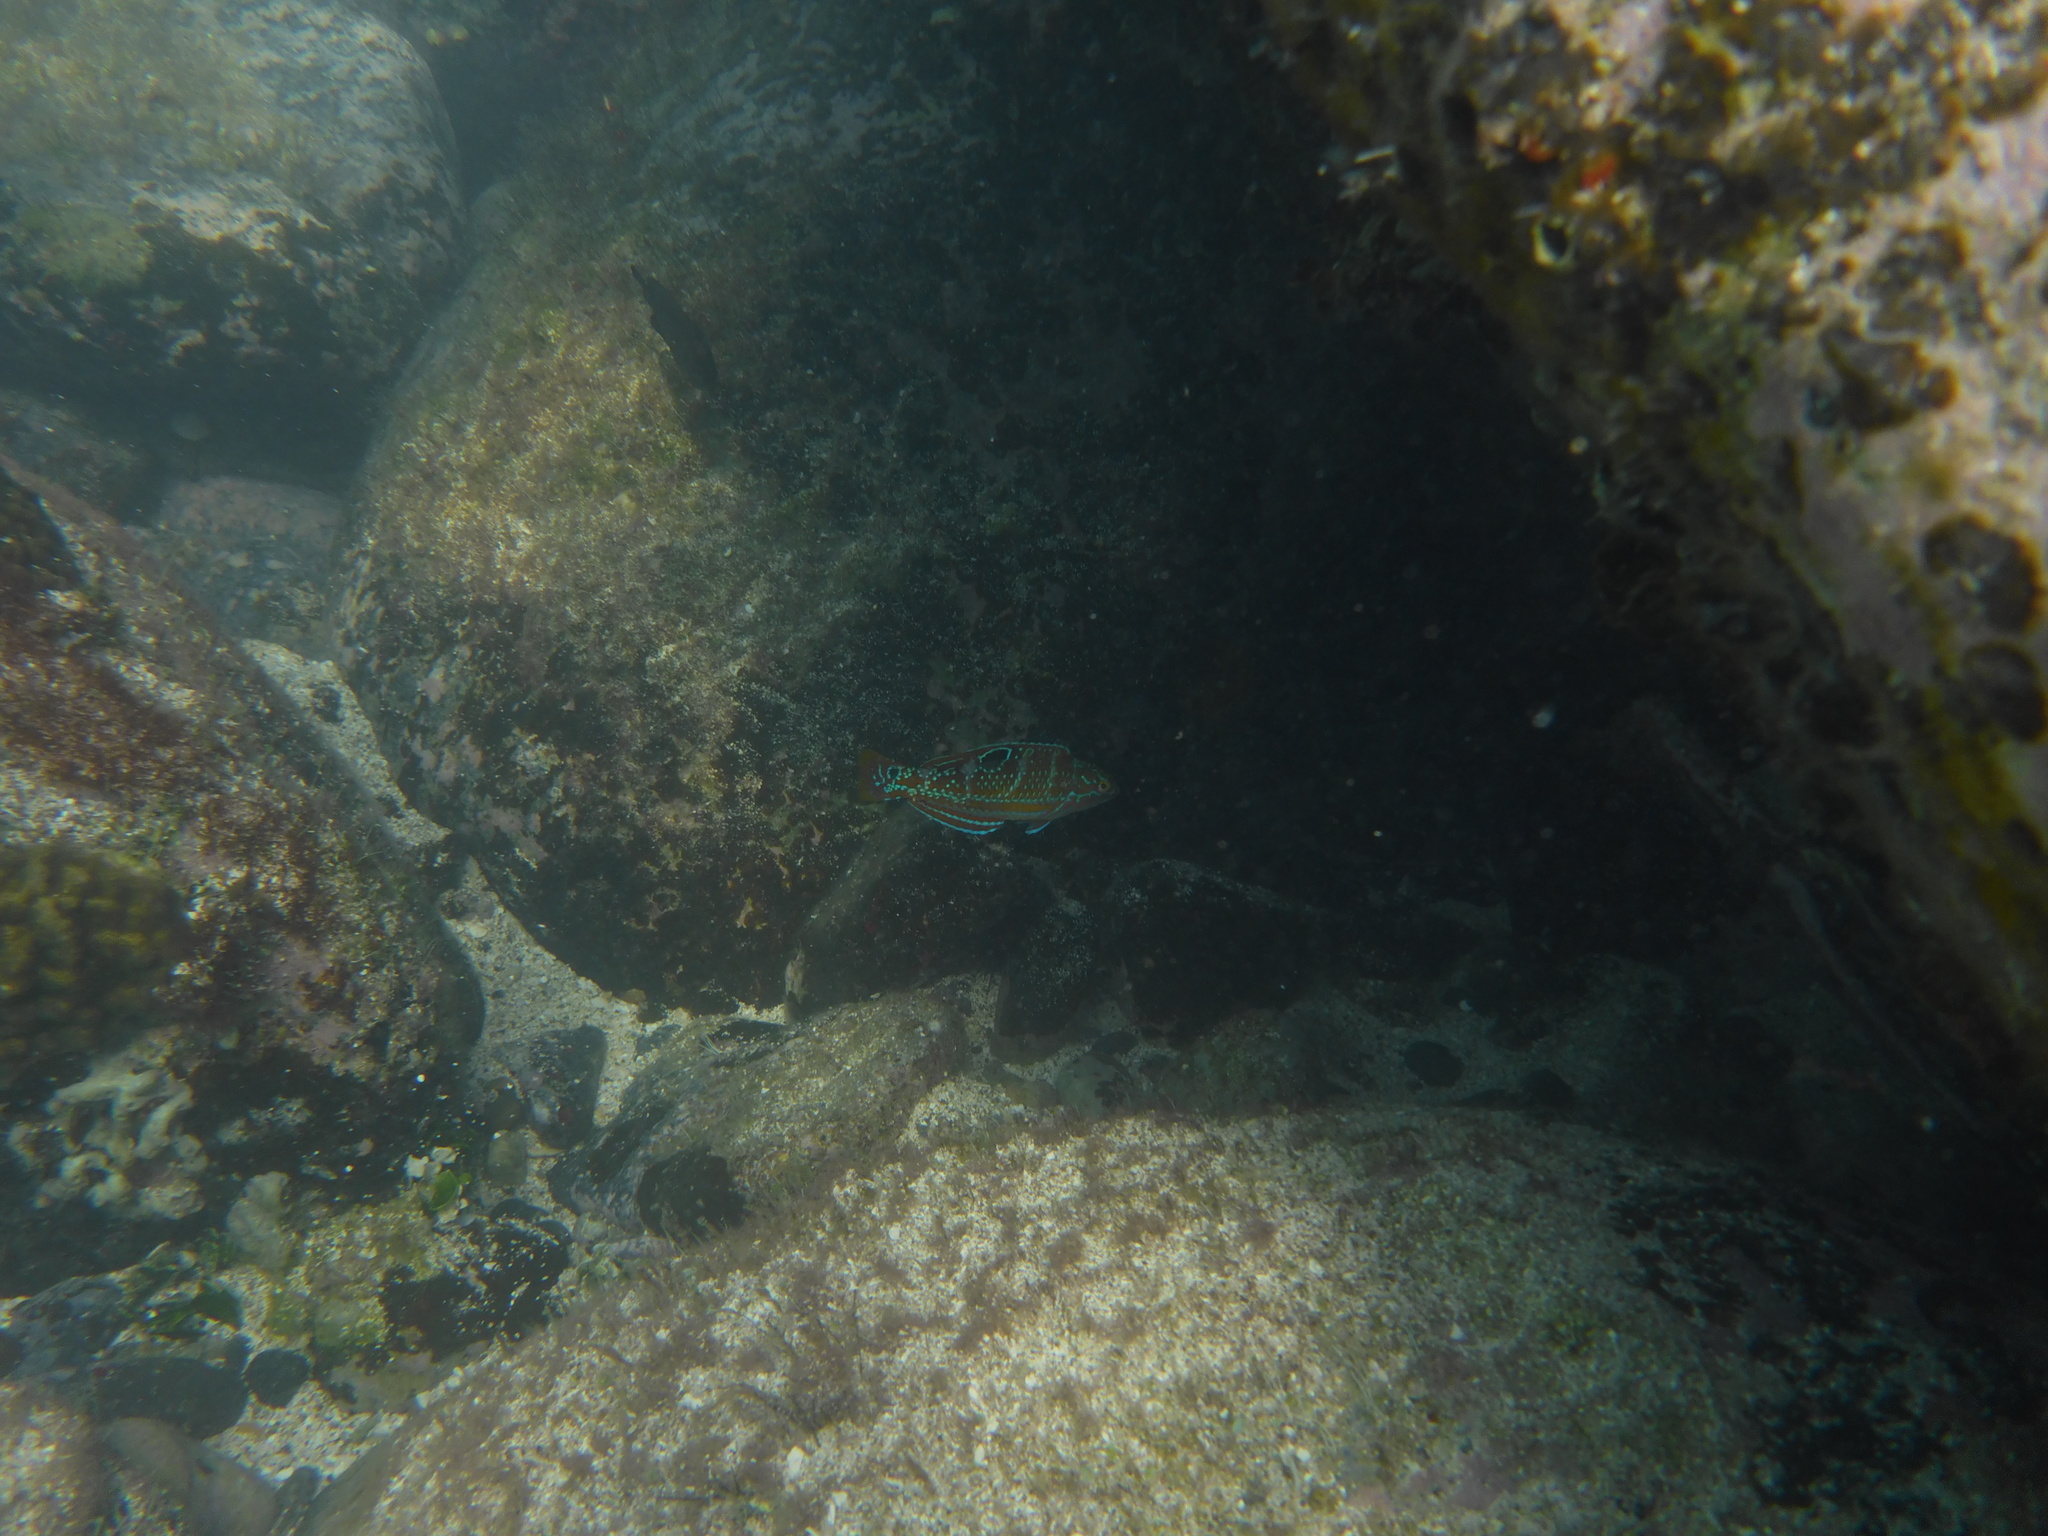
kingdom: Animalia
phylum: Chordata
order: Perciformes
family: Labridae
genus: Halichoeres
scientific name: Halichoeres radiatus
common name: Puddingwife
